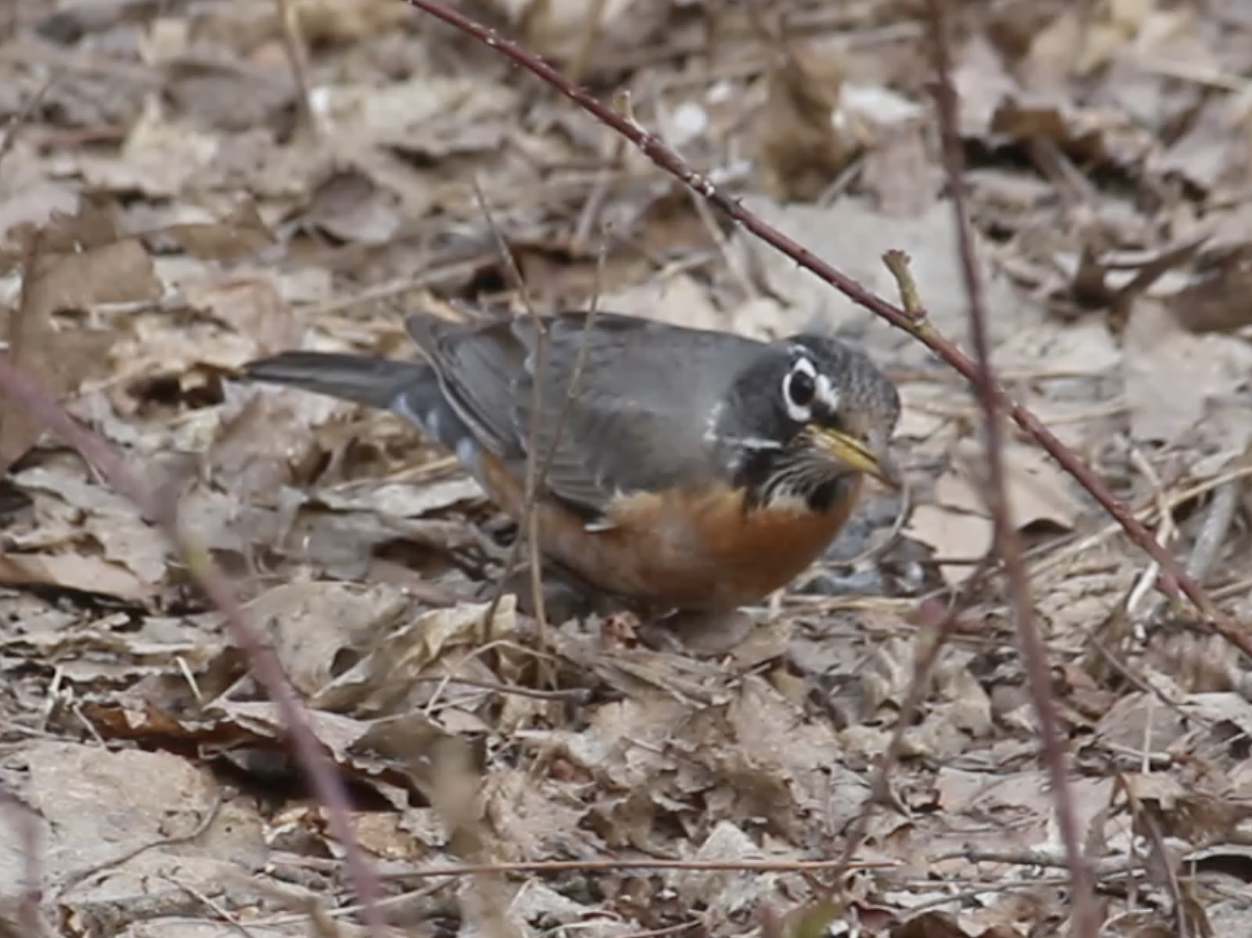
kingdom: Animalia
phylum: Chordata
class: Aves
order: Passeriformes
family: Turdidae
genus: Turdus
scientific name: Turdus migratorius
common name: American robin
